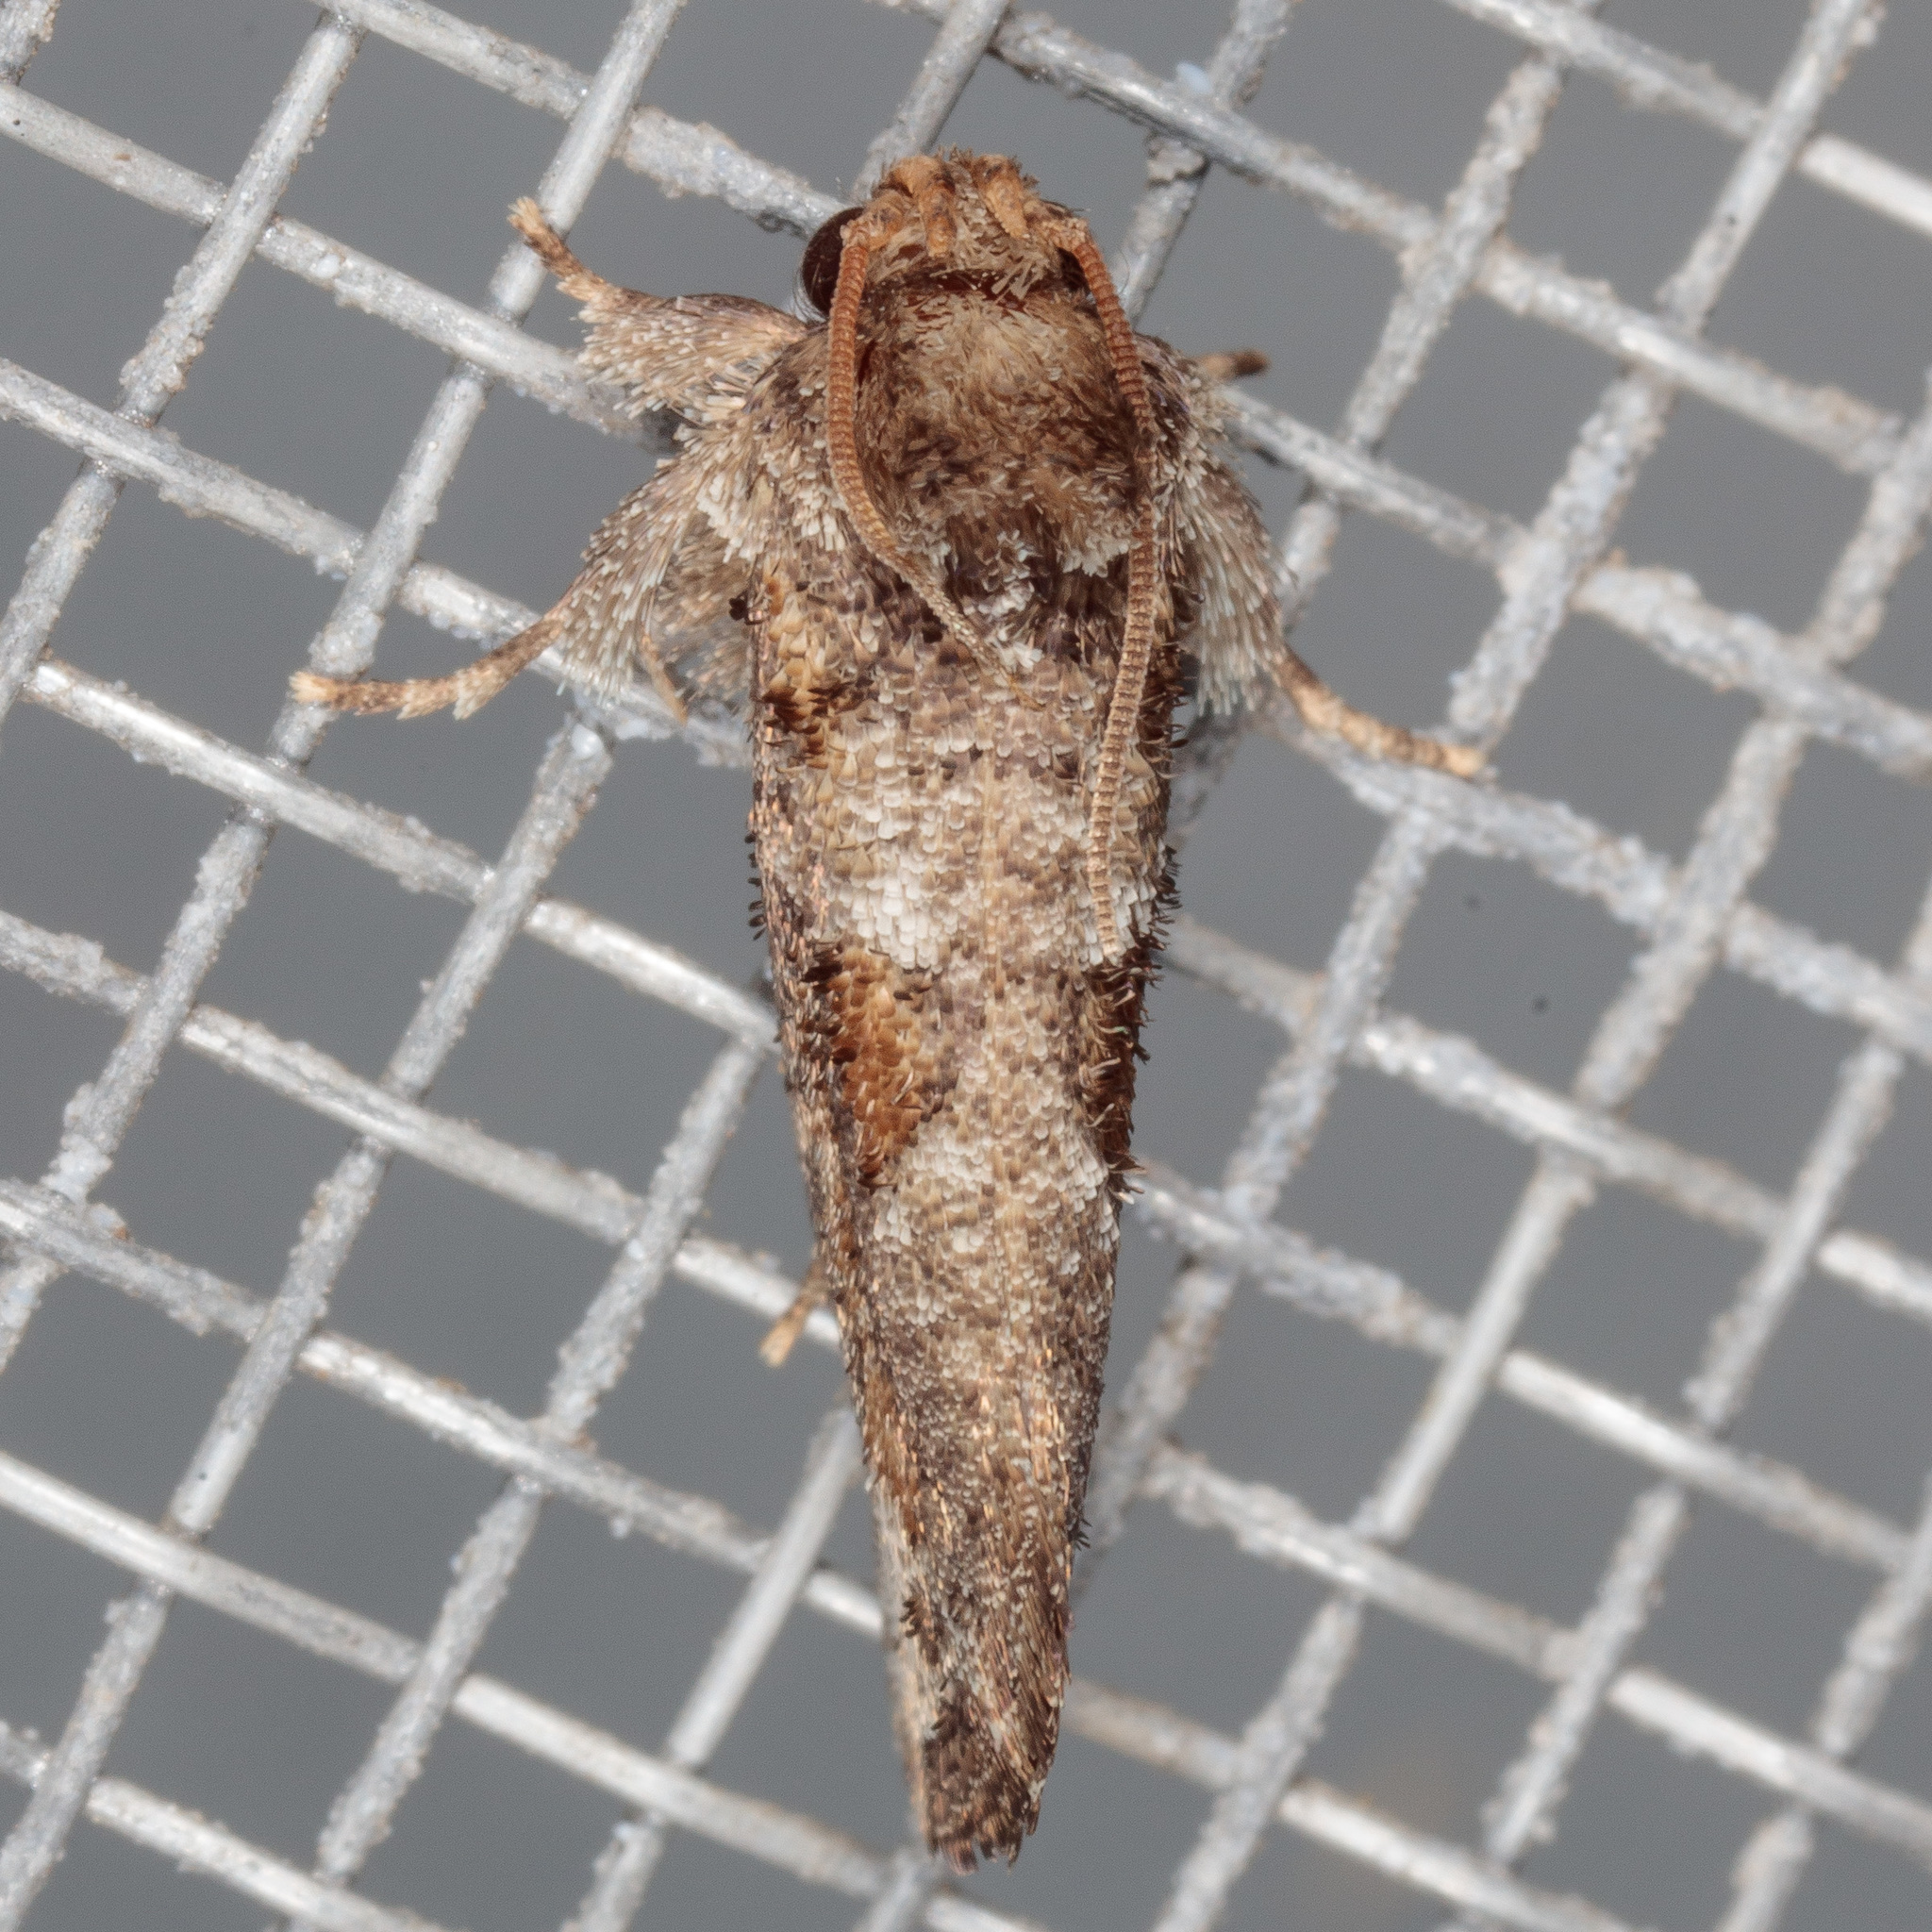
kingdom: Animalia
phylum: Arthropoda
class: Insecta
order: Lepidoptera
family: Tineidae
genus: Acrolophus
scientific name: Acrolophus piger
